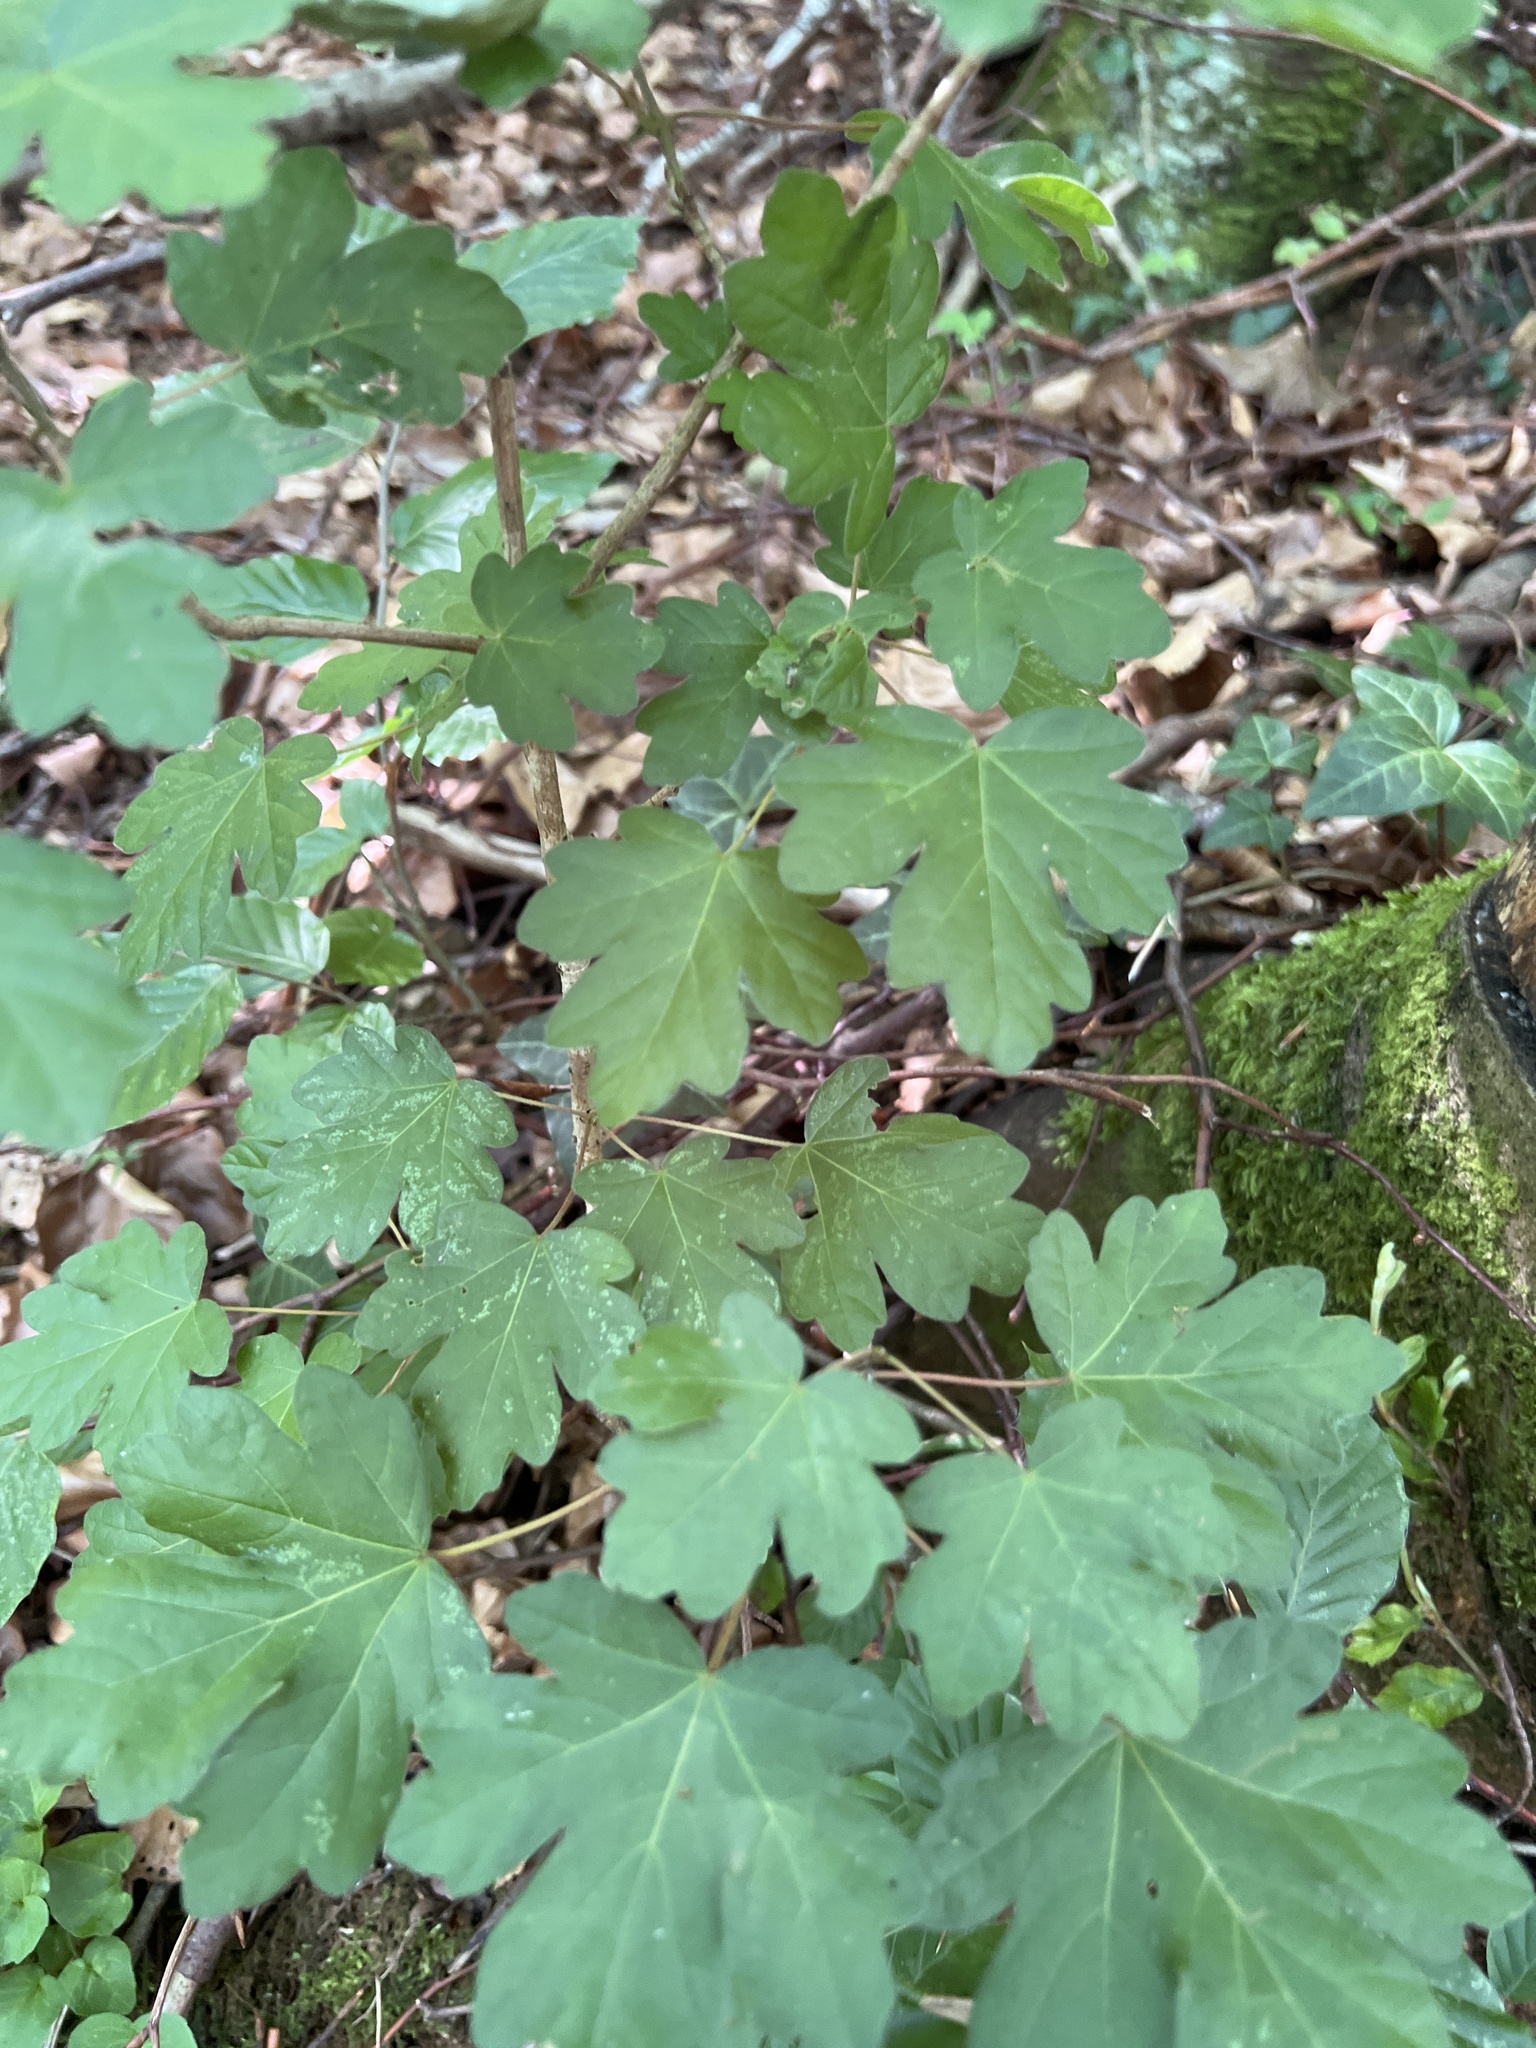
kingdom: Plantae
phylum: Tracheophyta
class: Magnoliopsida
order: Sapindales
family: Sapindaceae
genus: Acer
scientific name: Acer campestre
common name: Field maple
